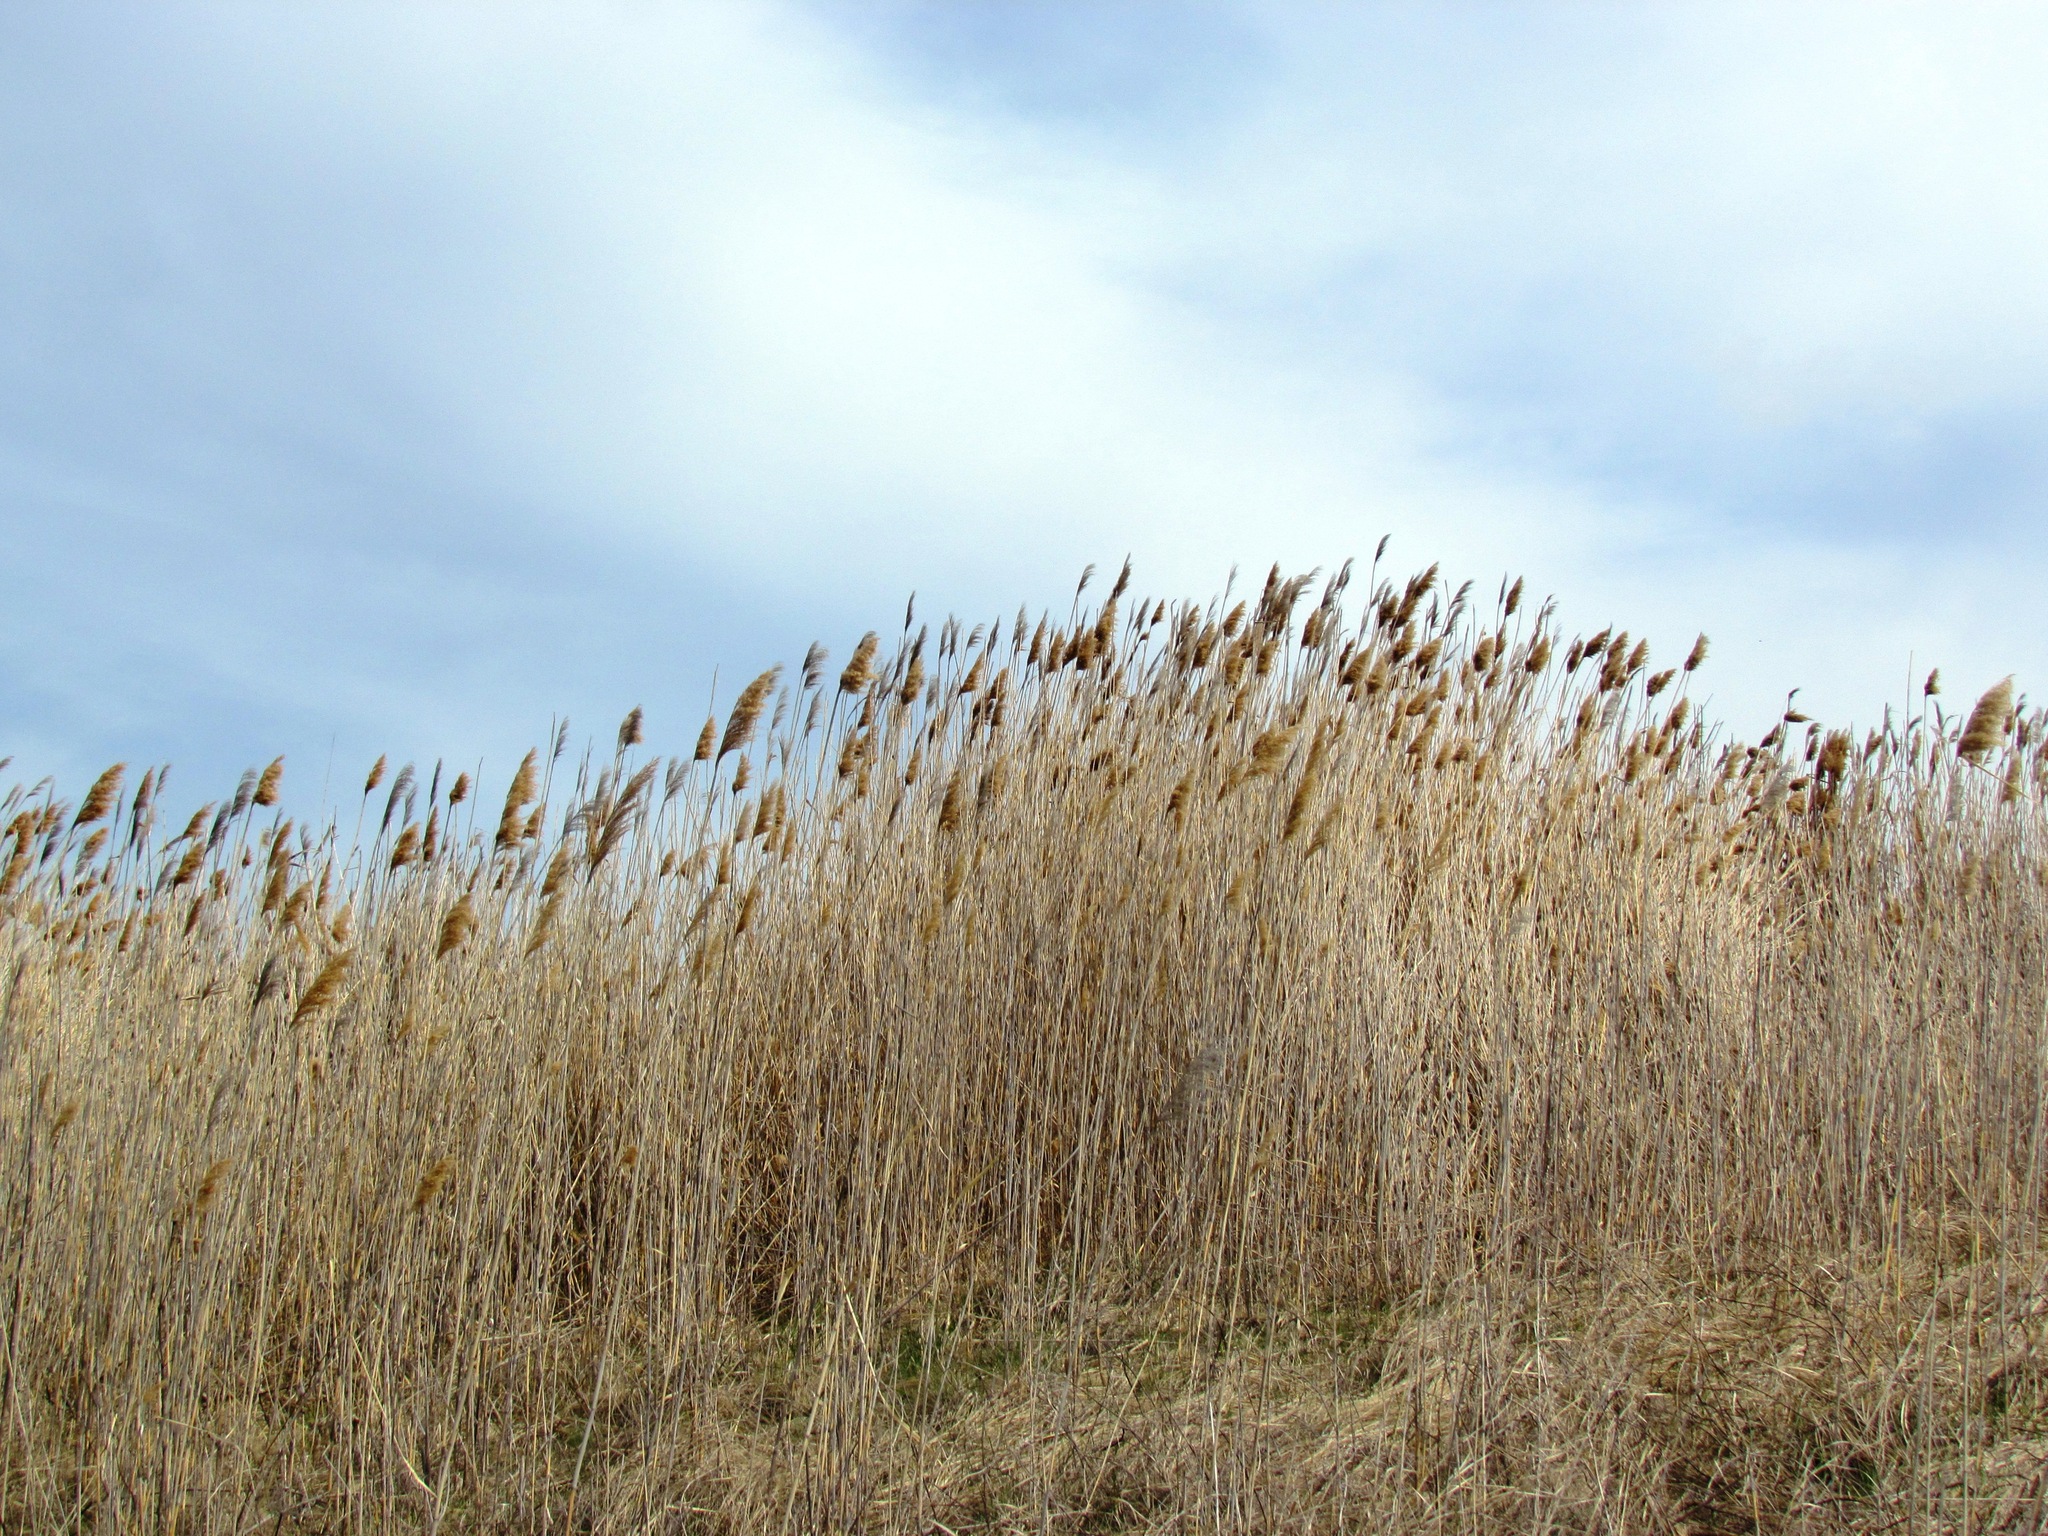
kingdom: Plantae
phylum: Tracheophyta
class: Liliopsida
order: Poales
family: Poaceae
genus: Phragmites
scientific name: Phragmites australis
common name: Common reed
